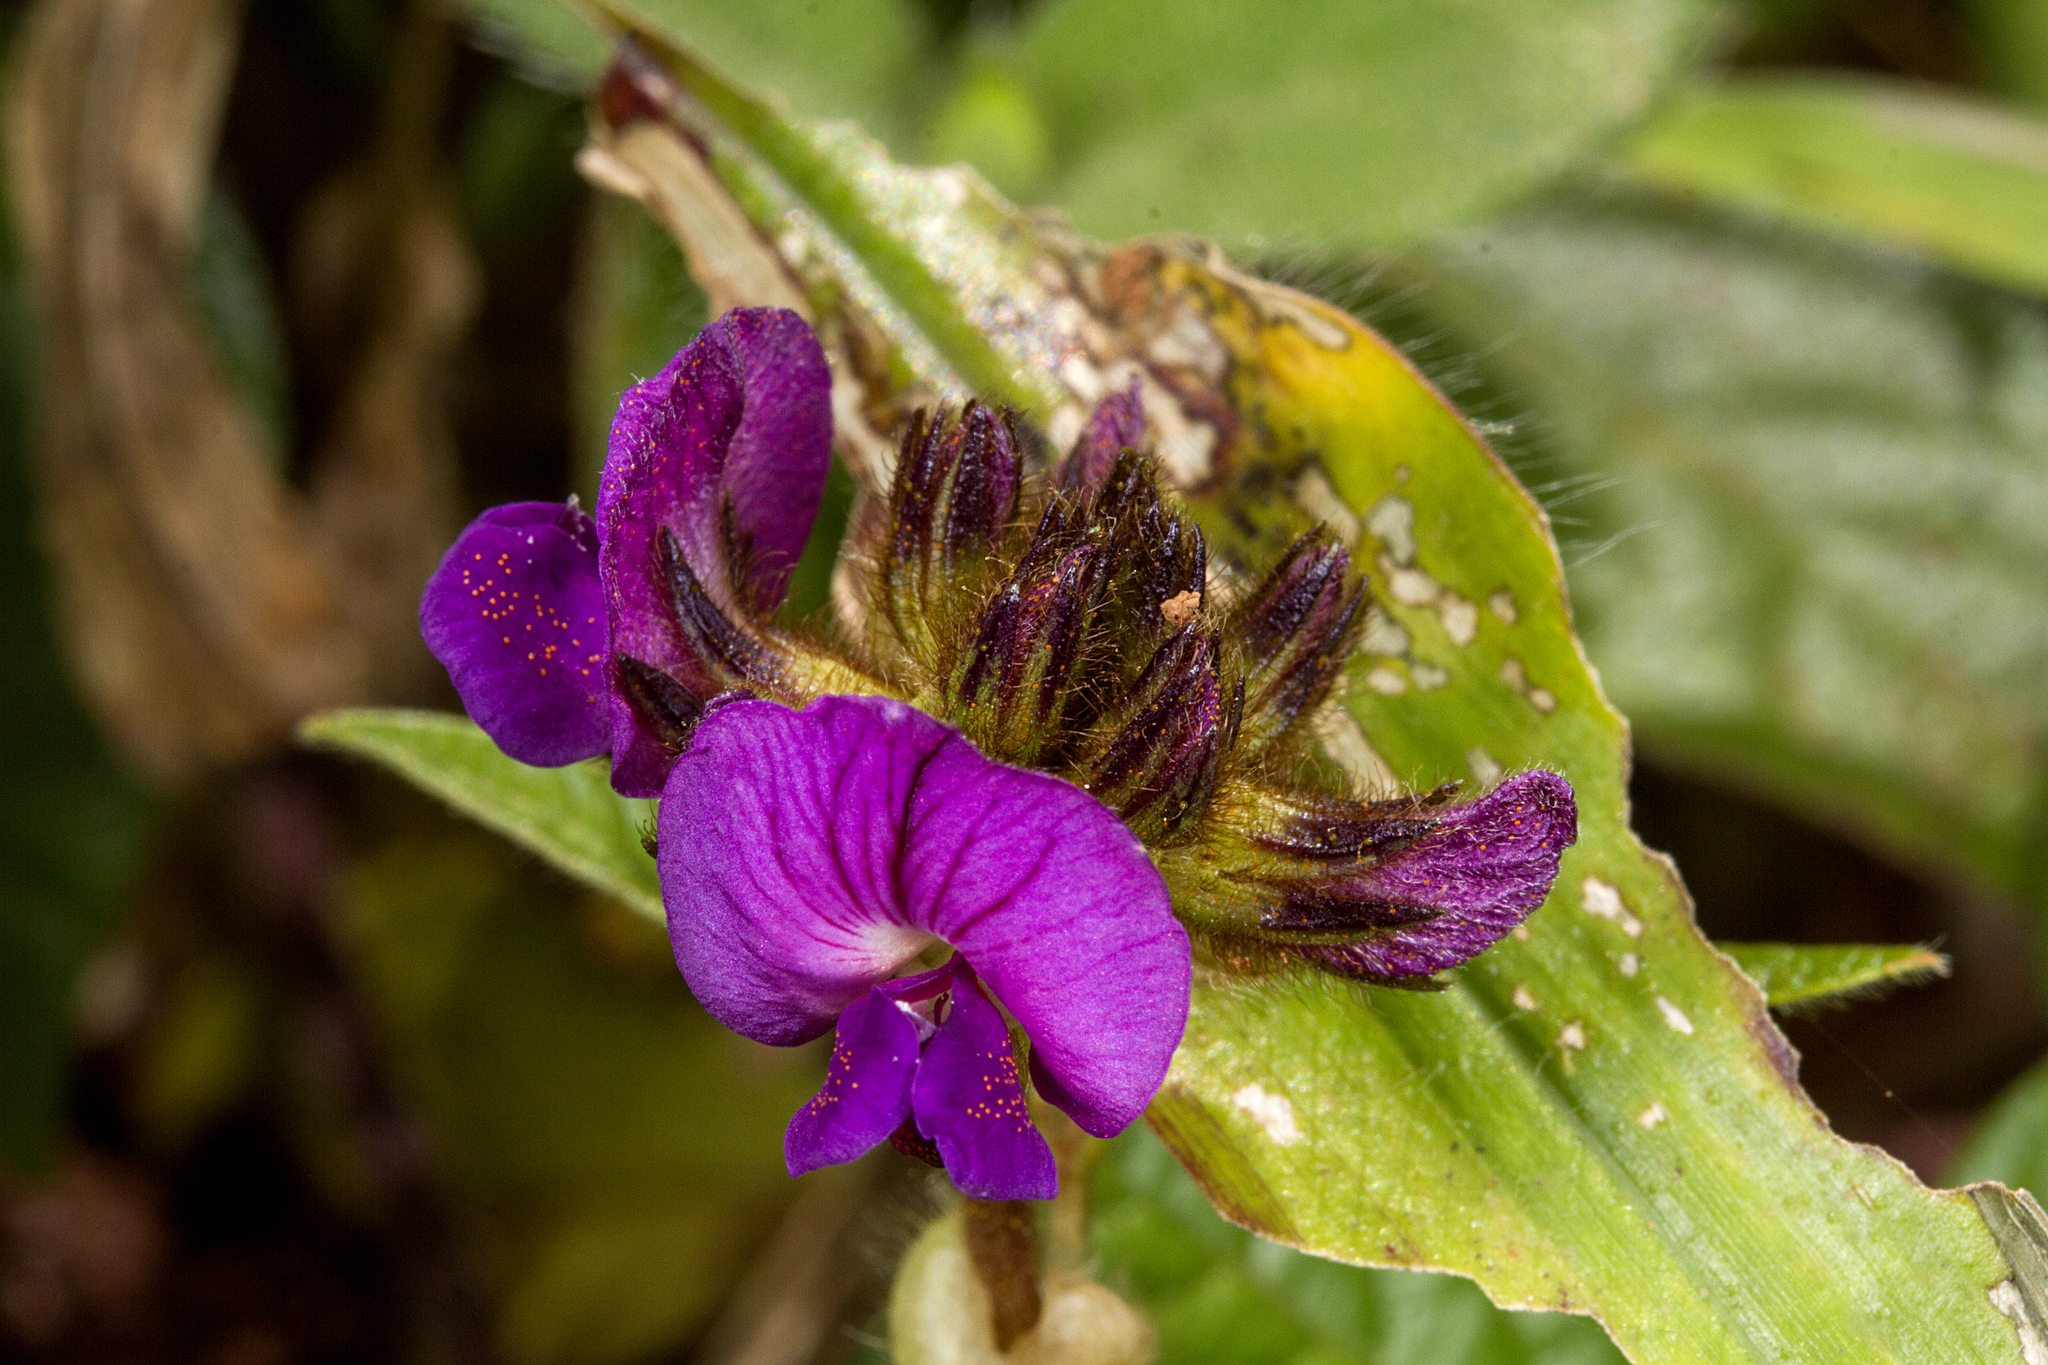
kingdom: Plantae
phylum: Tracheophyta
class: Magnoliopsida
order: Fabales
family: Fabaceae
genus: Flemingia
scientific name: Flemingia nilgheriensis
